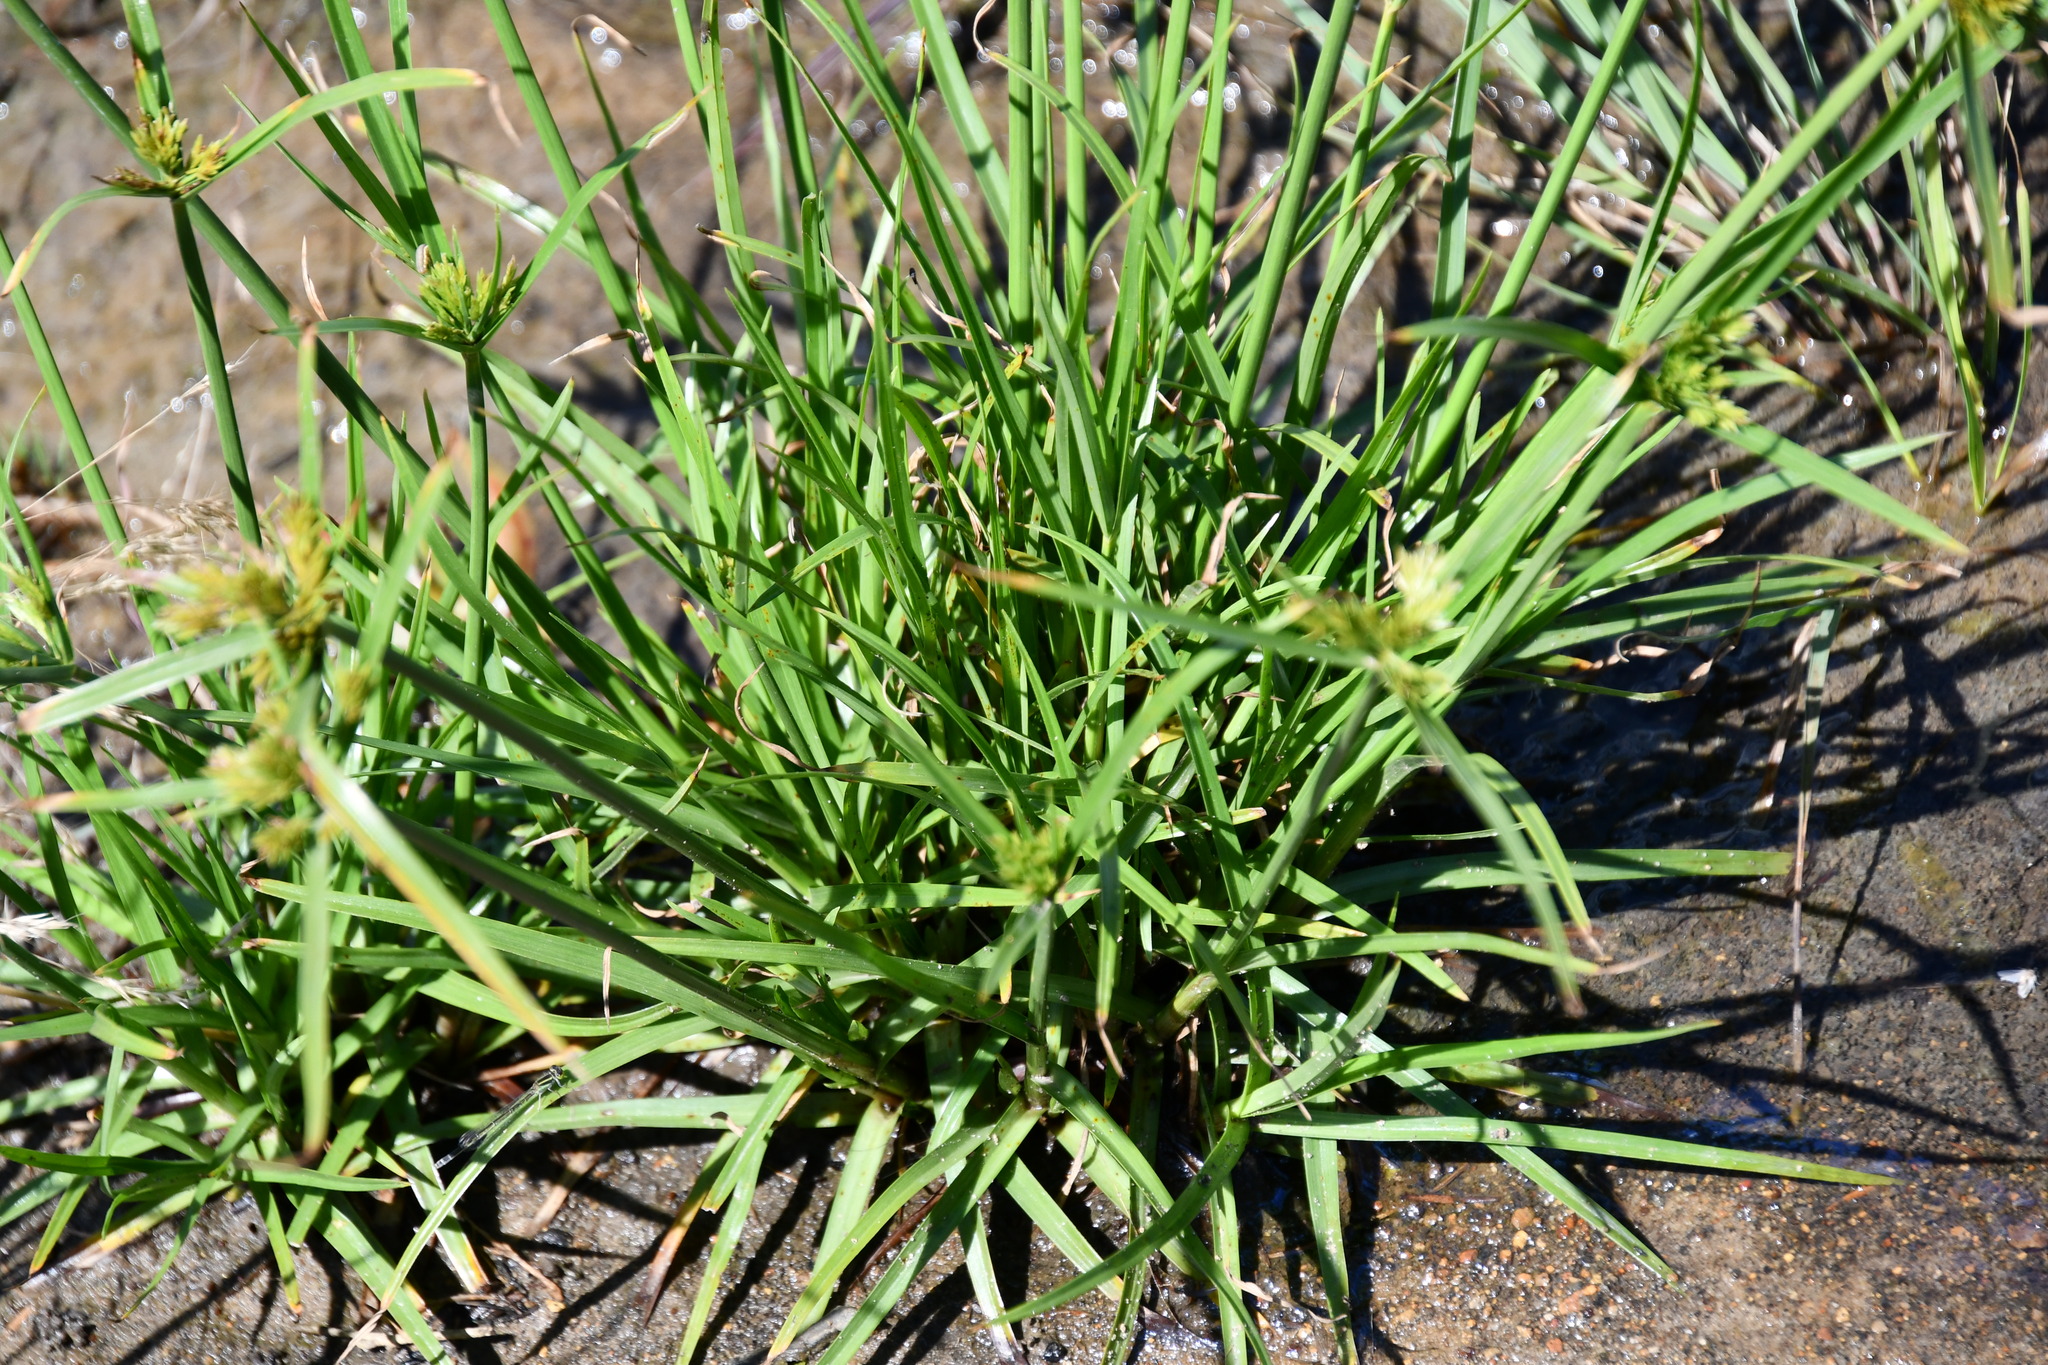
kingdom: Plantae
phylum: Tracheophyta
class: Liliopsida
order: Poales
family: Cyperaceae
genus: Cyperus
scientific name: Cyperus polystachyos
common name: Bunchy flat sedge
